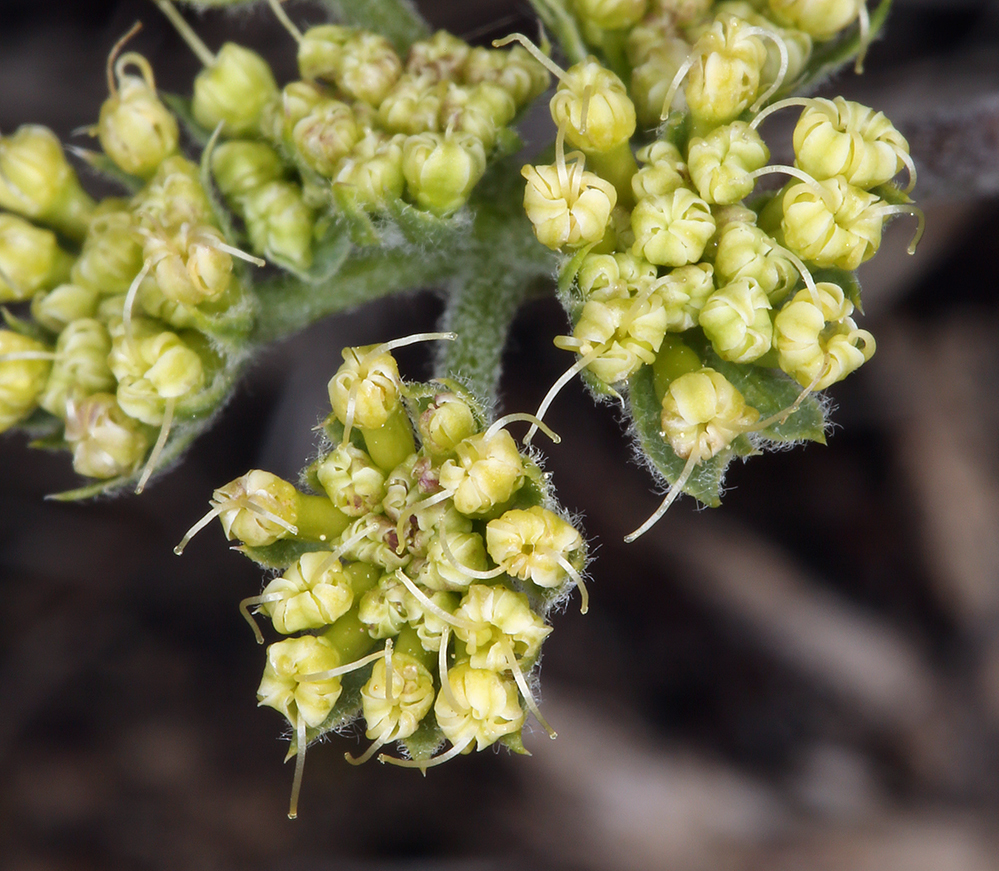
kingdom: Plantae
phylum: Tracheophyta
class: Magnoliopsida
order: Apiales
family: Apiaceae
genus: Lomatium
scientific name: Lomatium macrocarpum
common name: Big-seed biscuitroot
